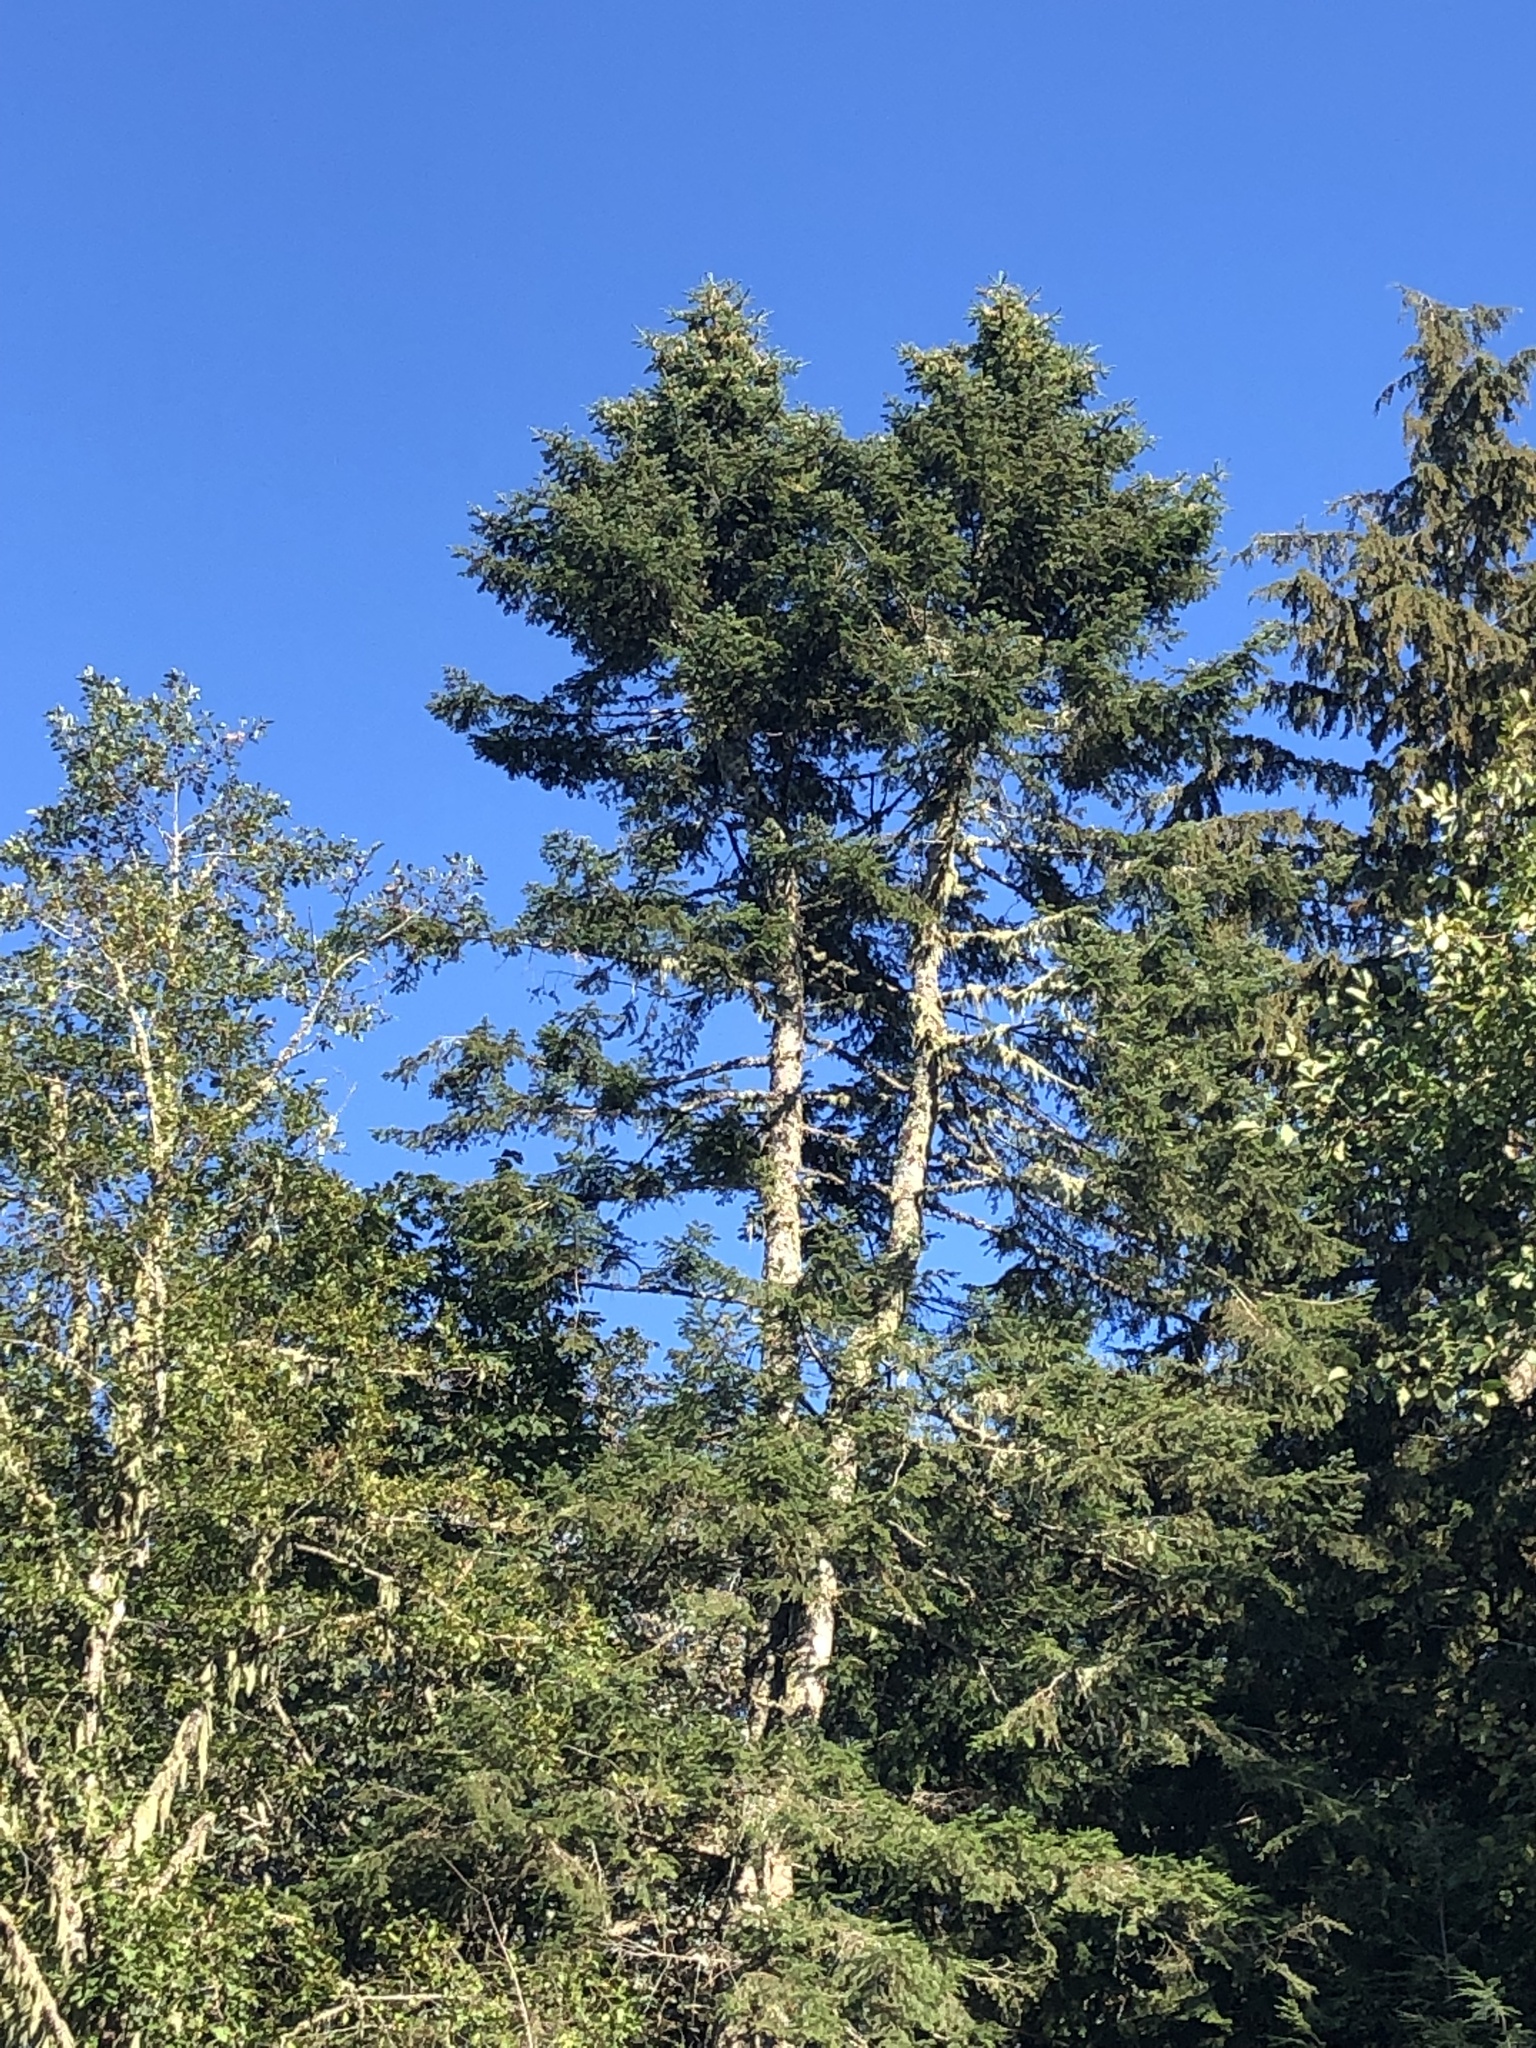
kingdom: Plantae
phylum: Tracheophyta
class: Pinopsida
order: Pinales
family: Pinaceae
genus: Abies
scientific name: Abies grandis
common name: Giant fir
